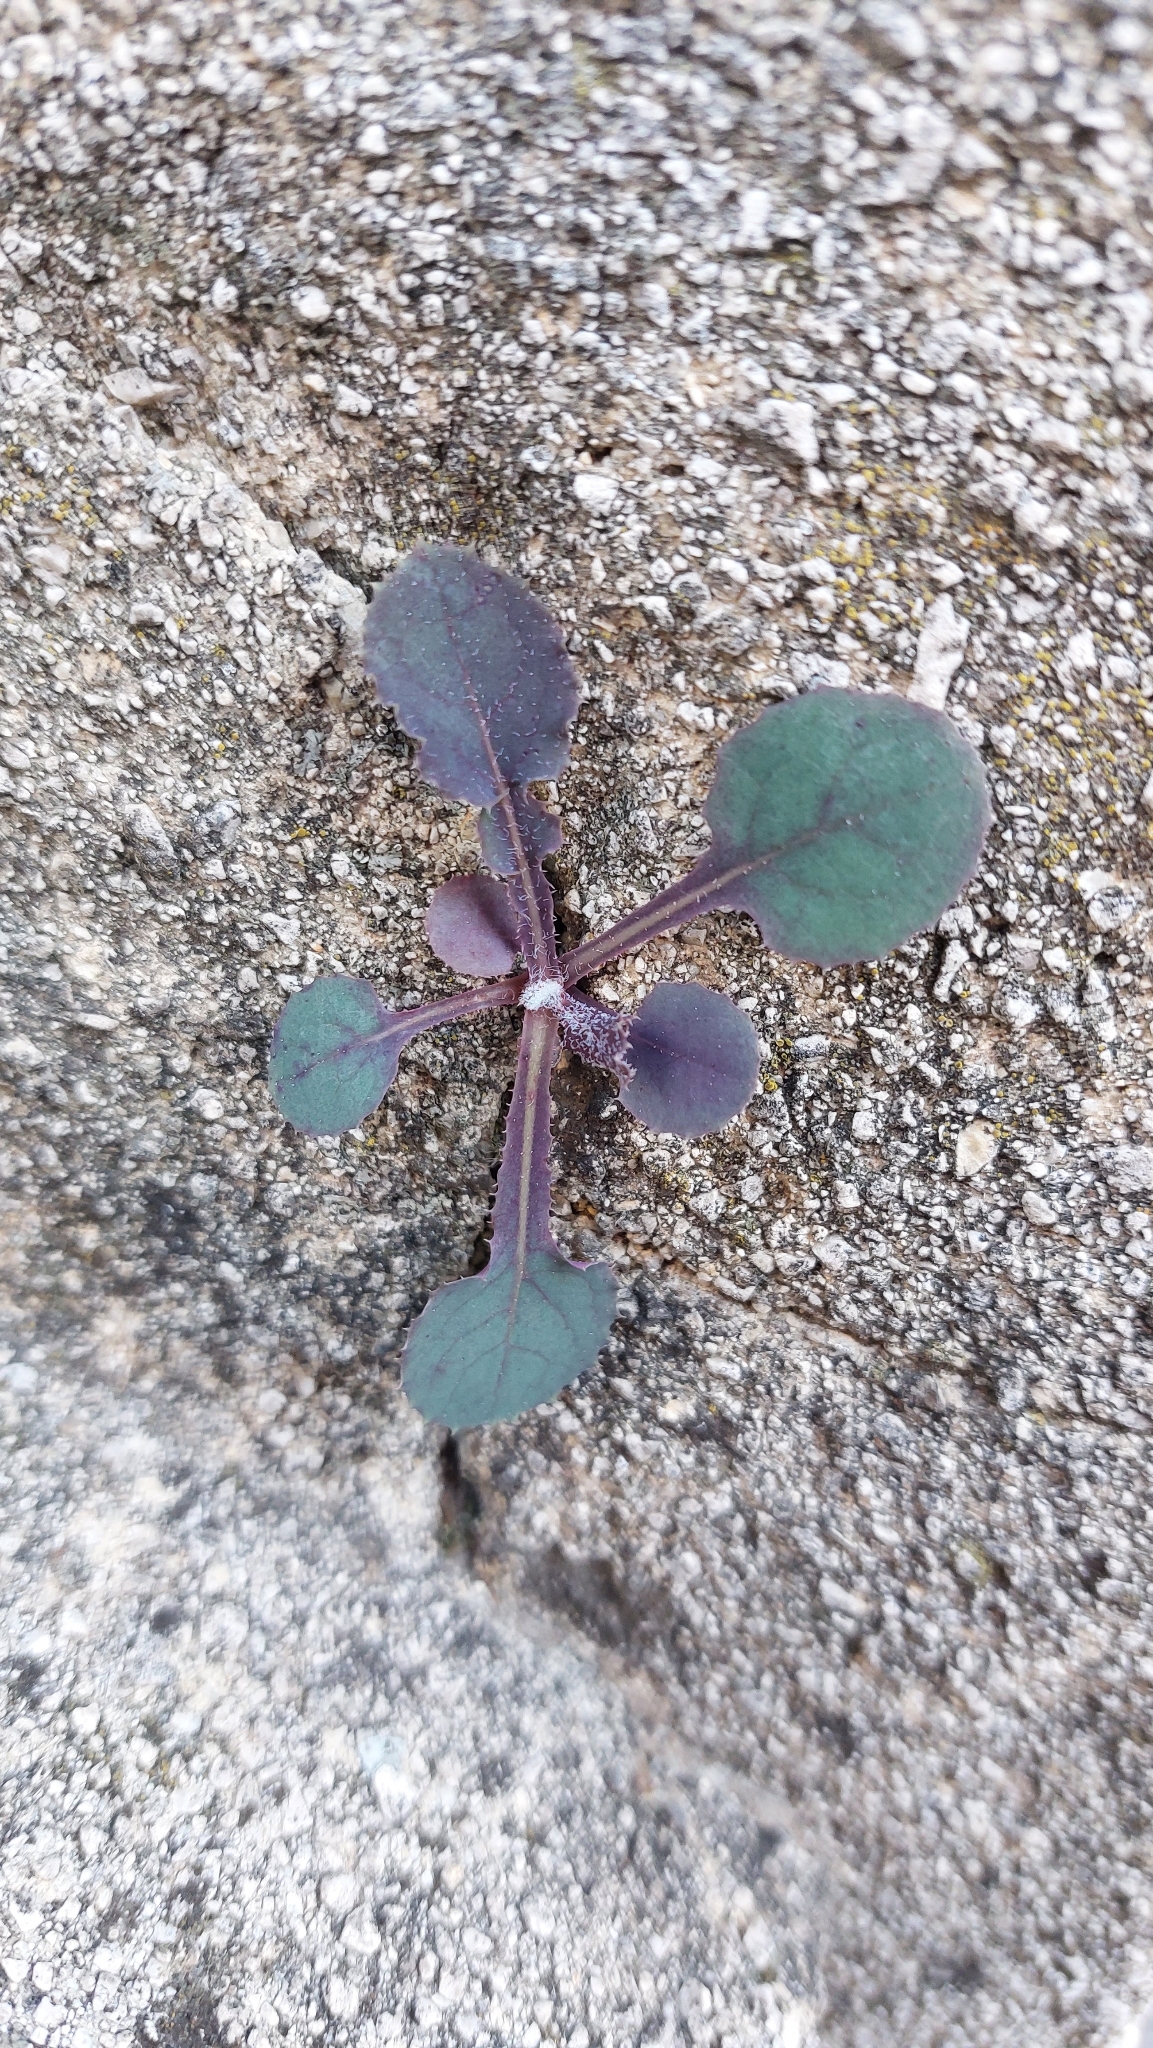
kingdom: Plantae
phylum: Tracheophyta
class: Magnoliopsida
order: Asterales
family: Asteraceae
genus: Sonchus
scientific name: Sonchus oleraceus
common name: Common sowthistle
